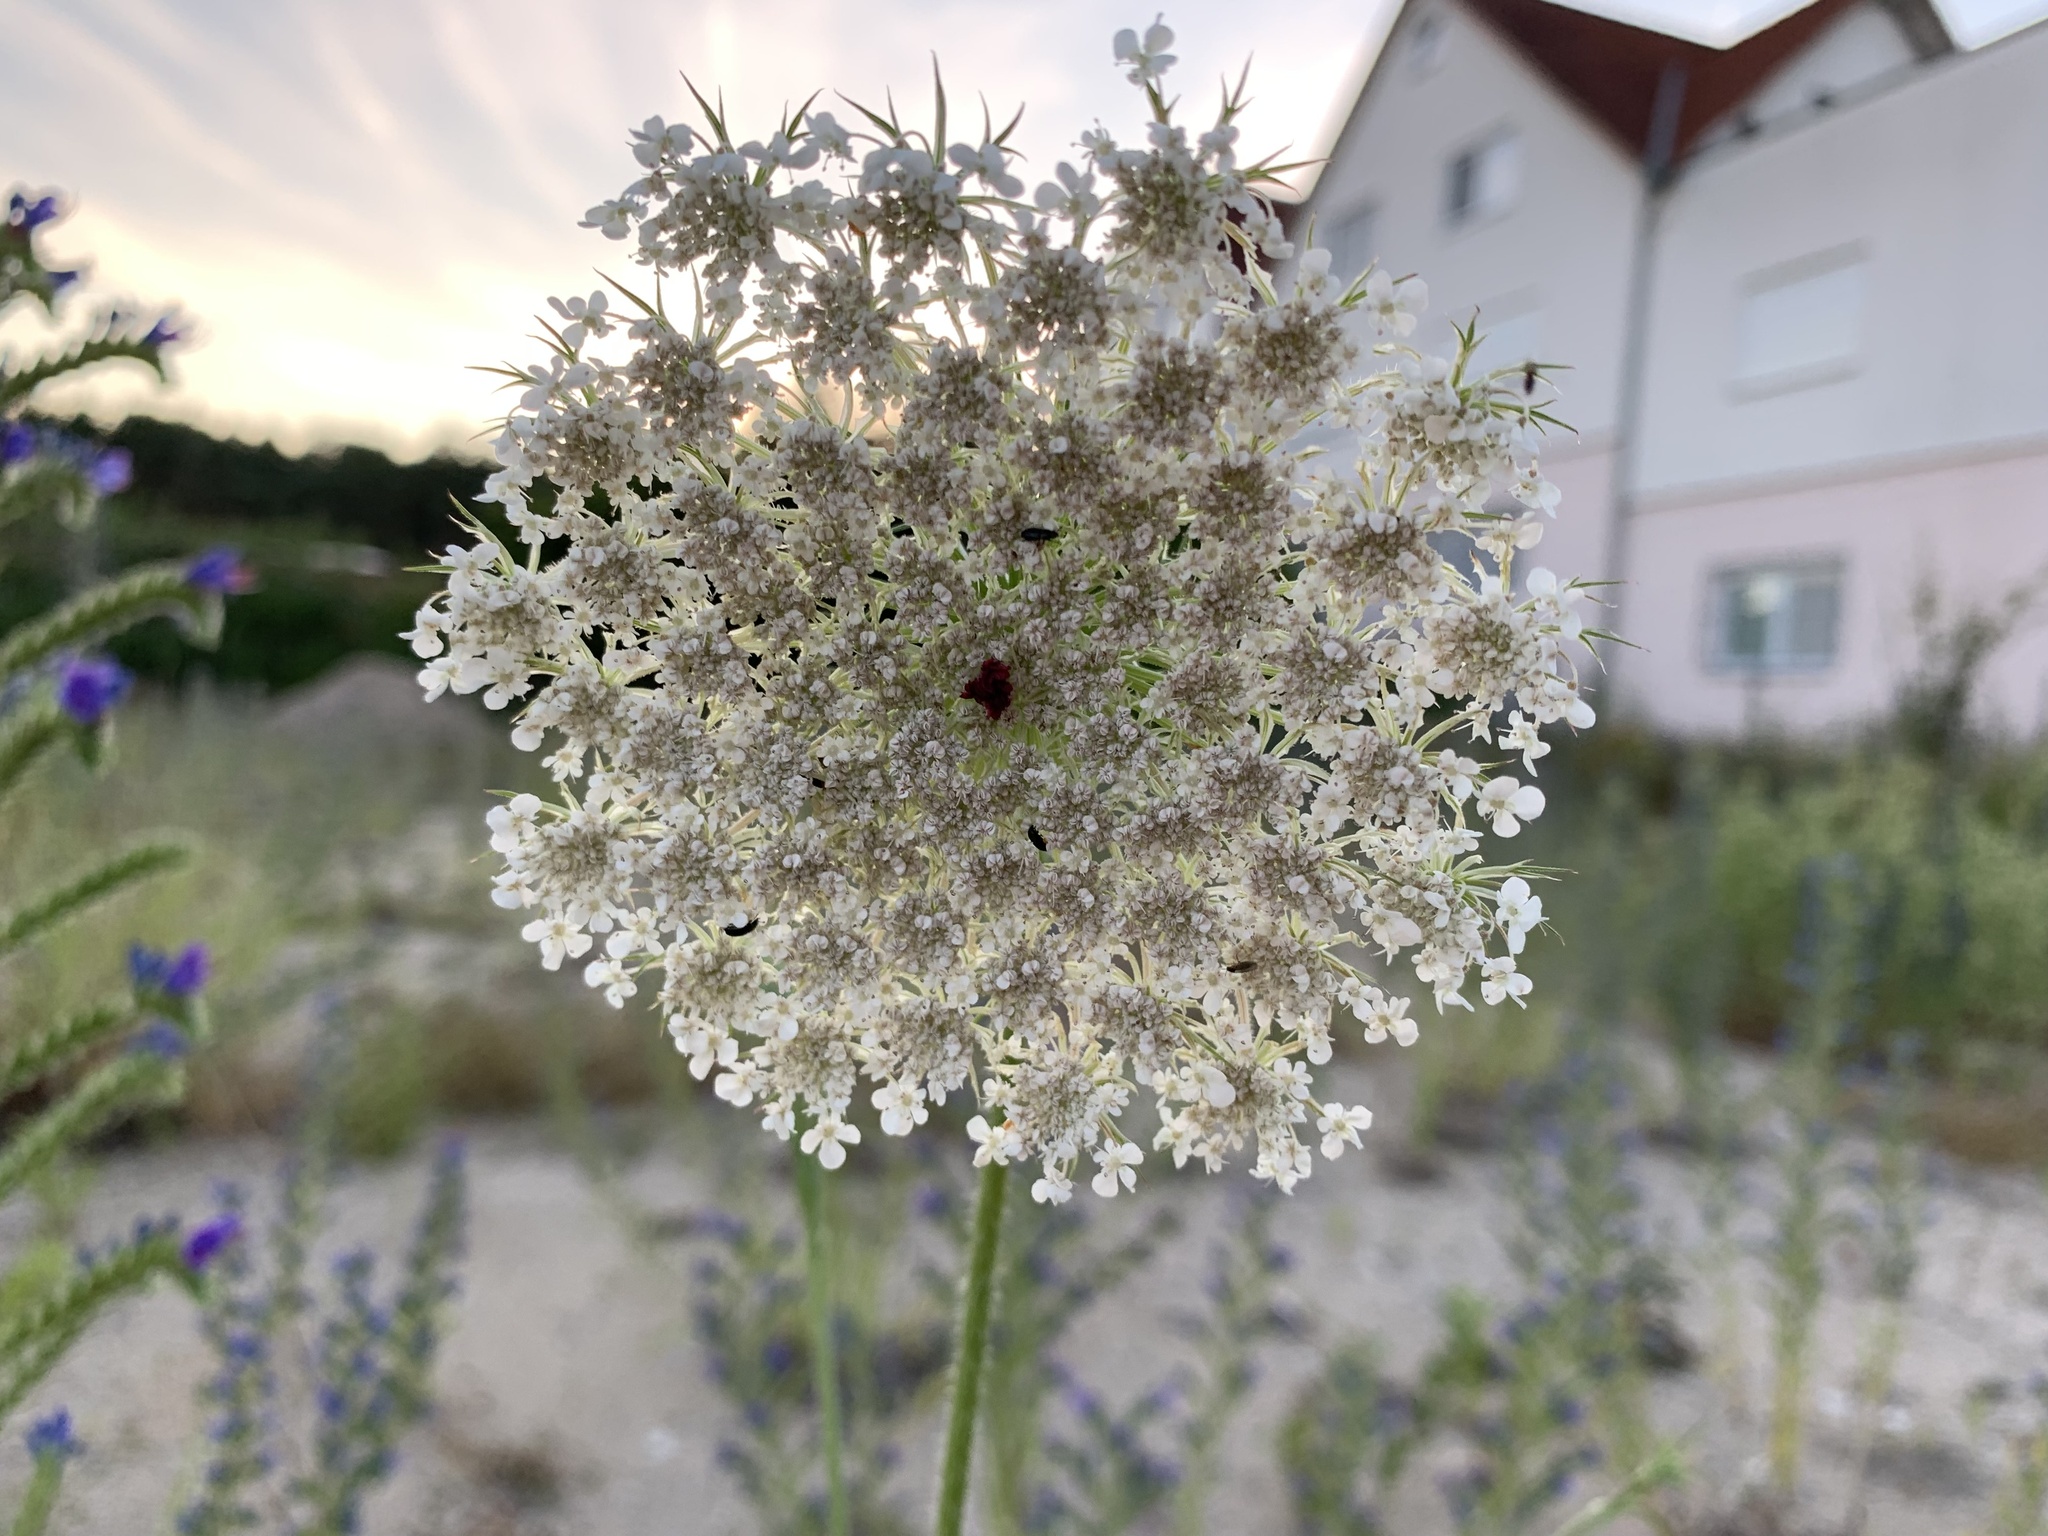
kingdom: Plantae
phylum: Tracheophyta
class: Magnoliopsida
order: Apiales
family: Apiaceae
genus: Daucus
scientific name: Daucus carota
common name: Wild carrot
